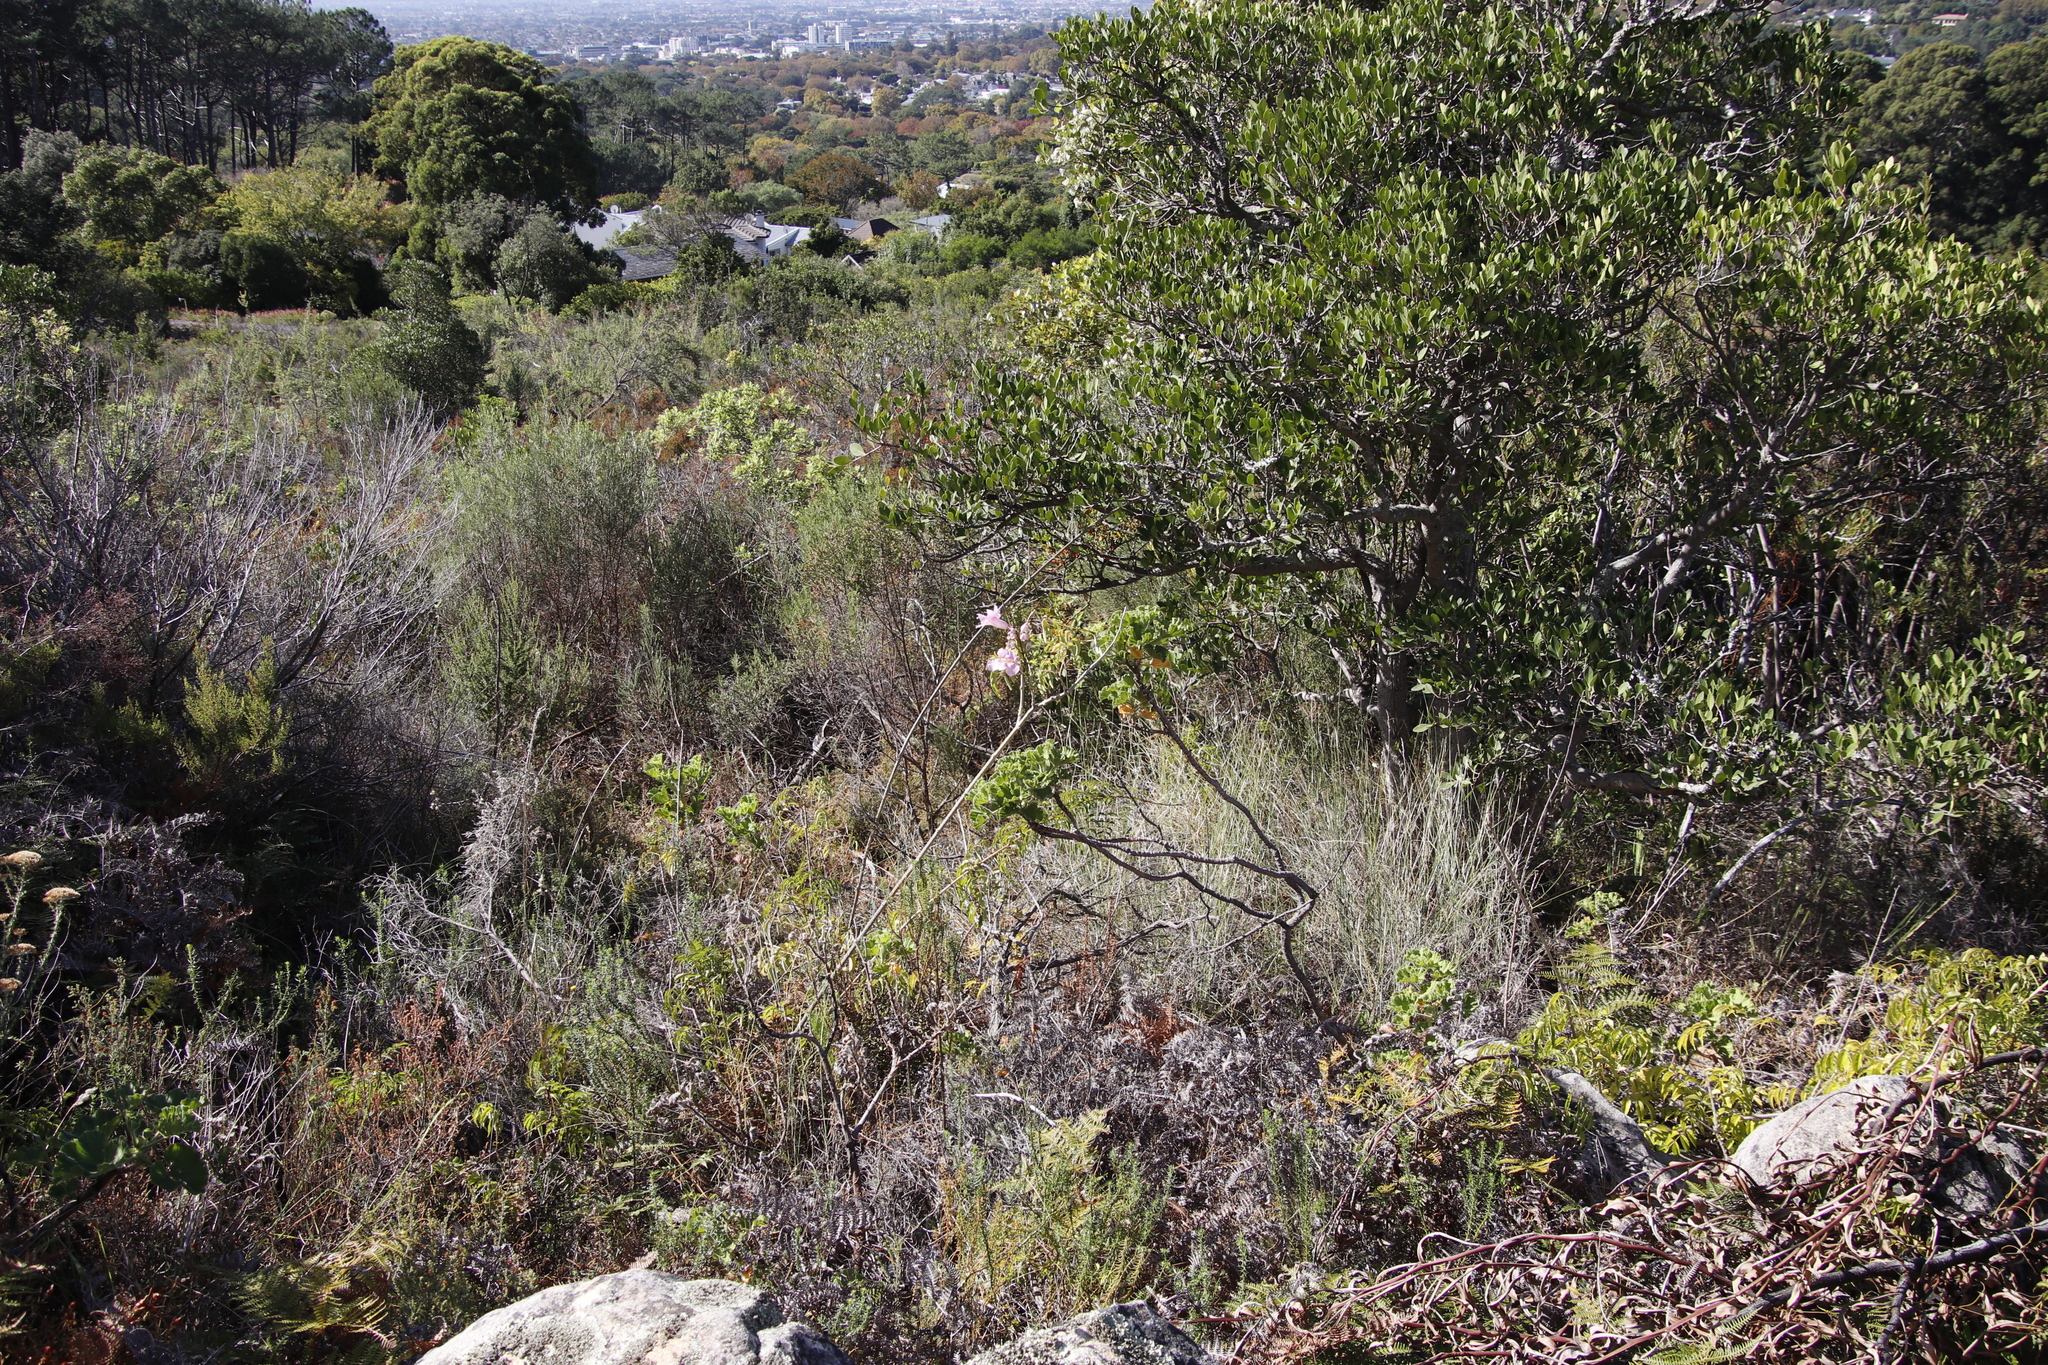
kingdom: Plantae
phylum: Tracheophyta
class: Magnoliopsida
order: Lamiales
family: Bignoniaceae
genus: Podranea
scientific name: Podranea ricasoliana
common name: Zimbabwe creeper
